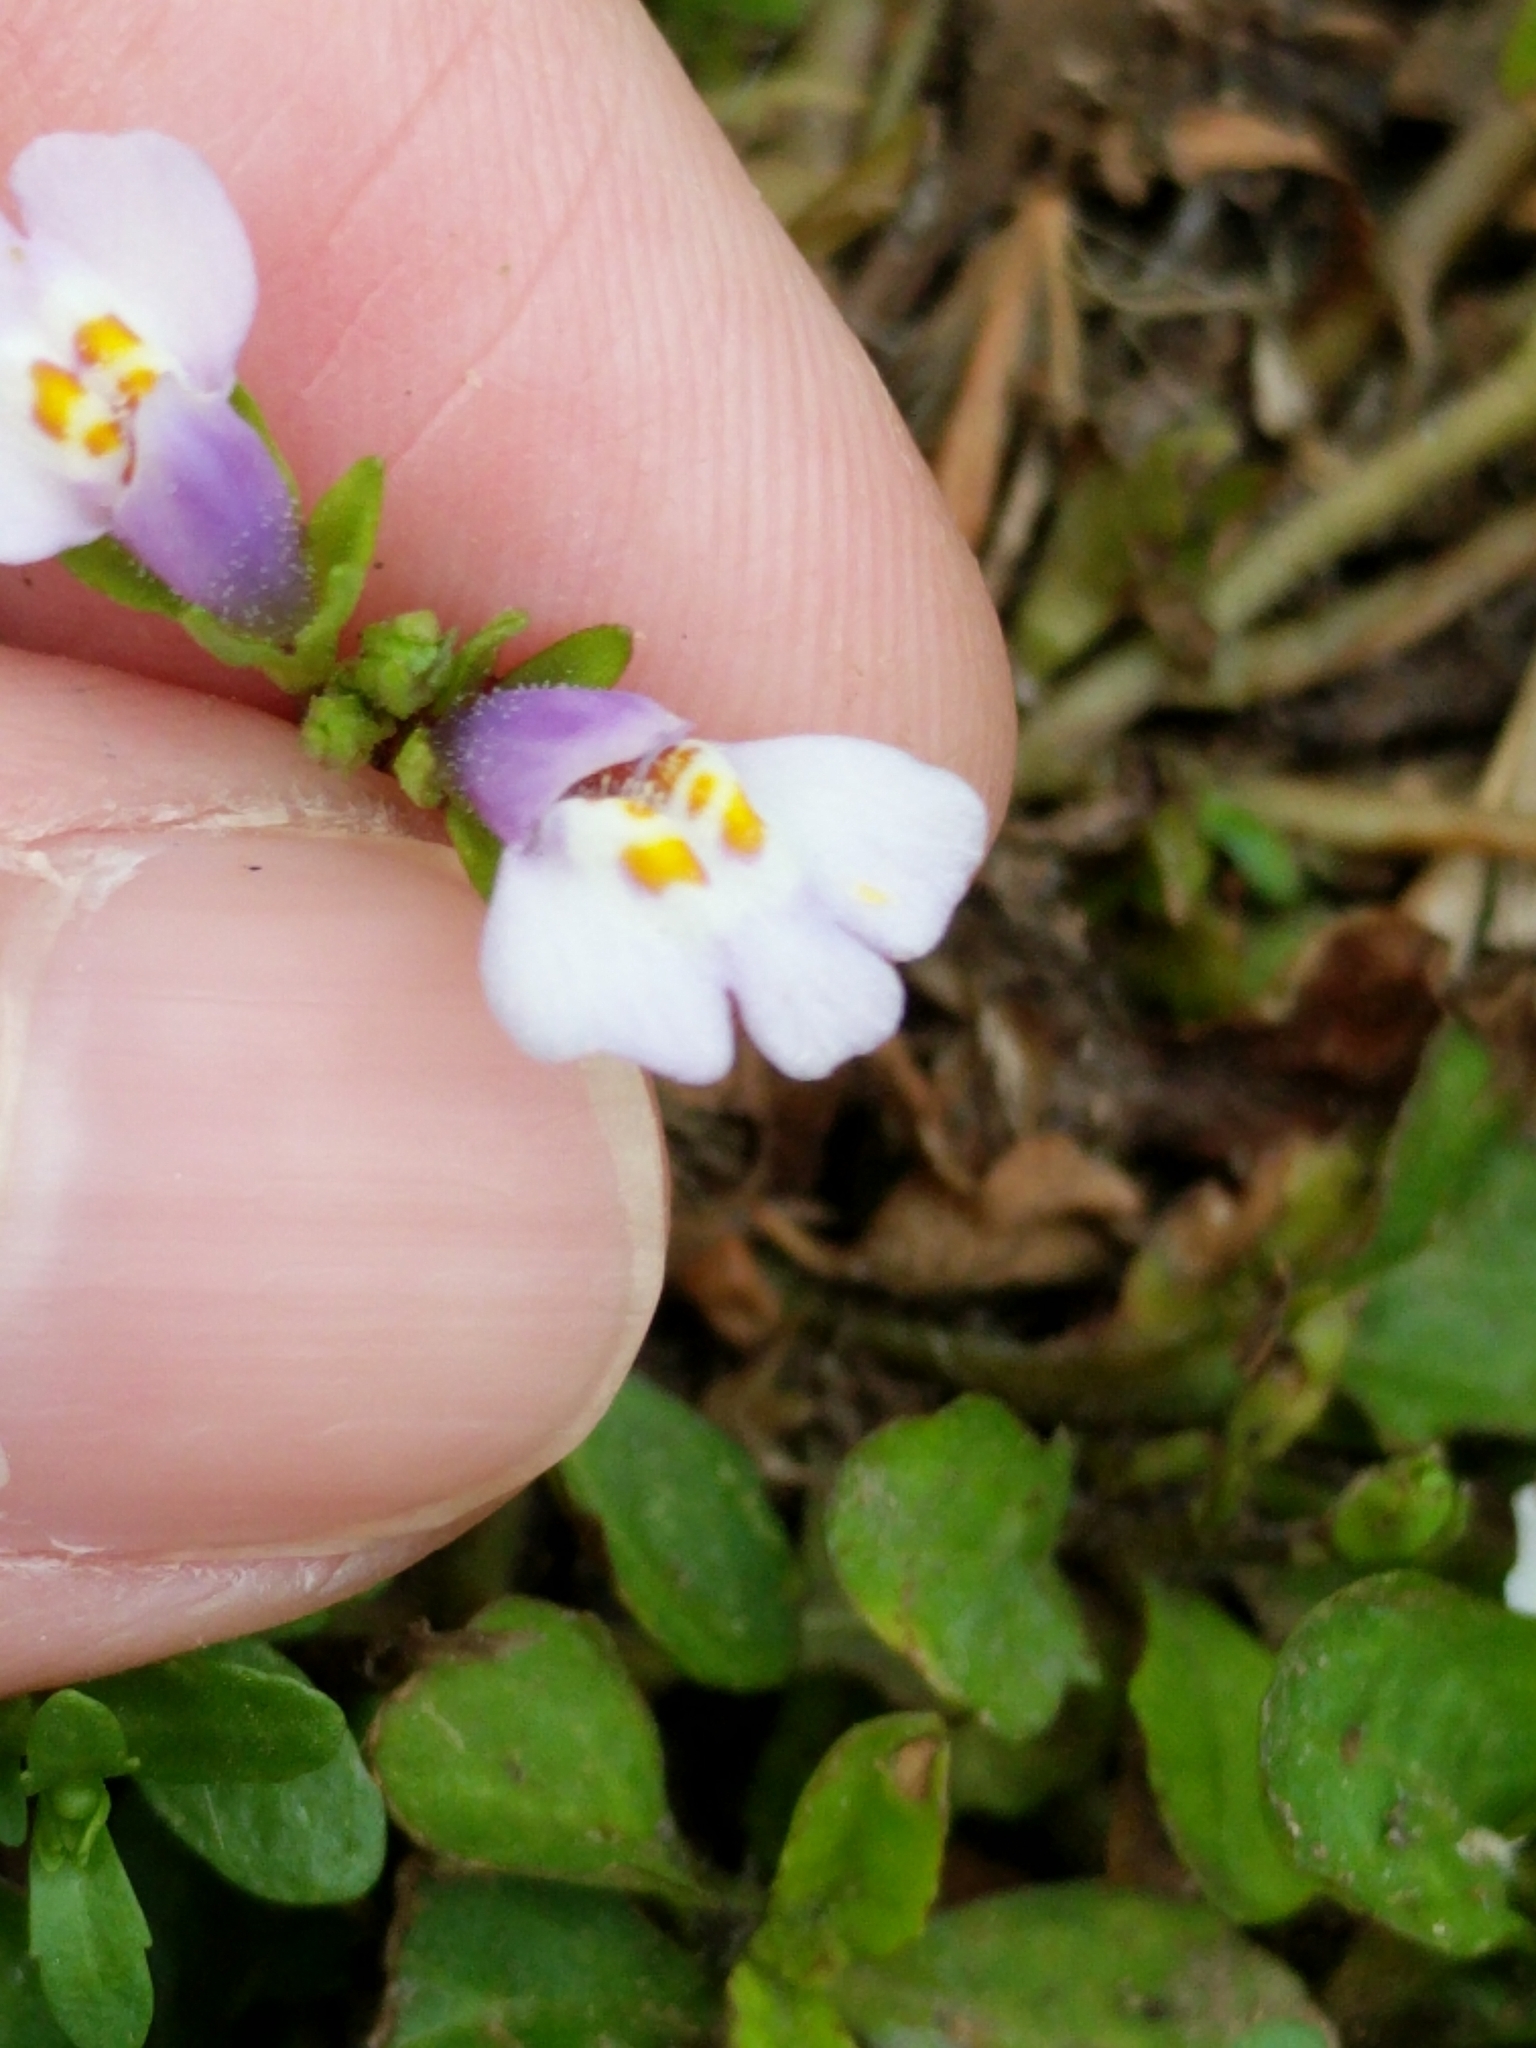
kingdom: Plantae
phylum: Tracheophyta
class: Magnoliopsida
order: Lamiales
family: Mazaceae
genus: Mazus
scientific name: Mazus pumilus
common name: Japanese mazus
